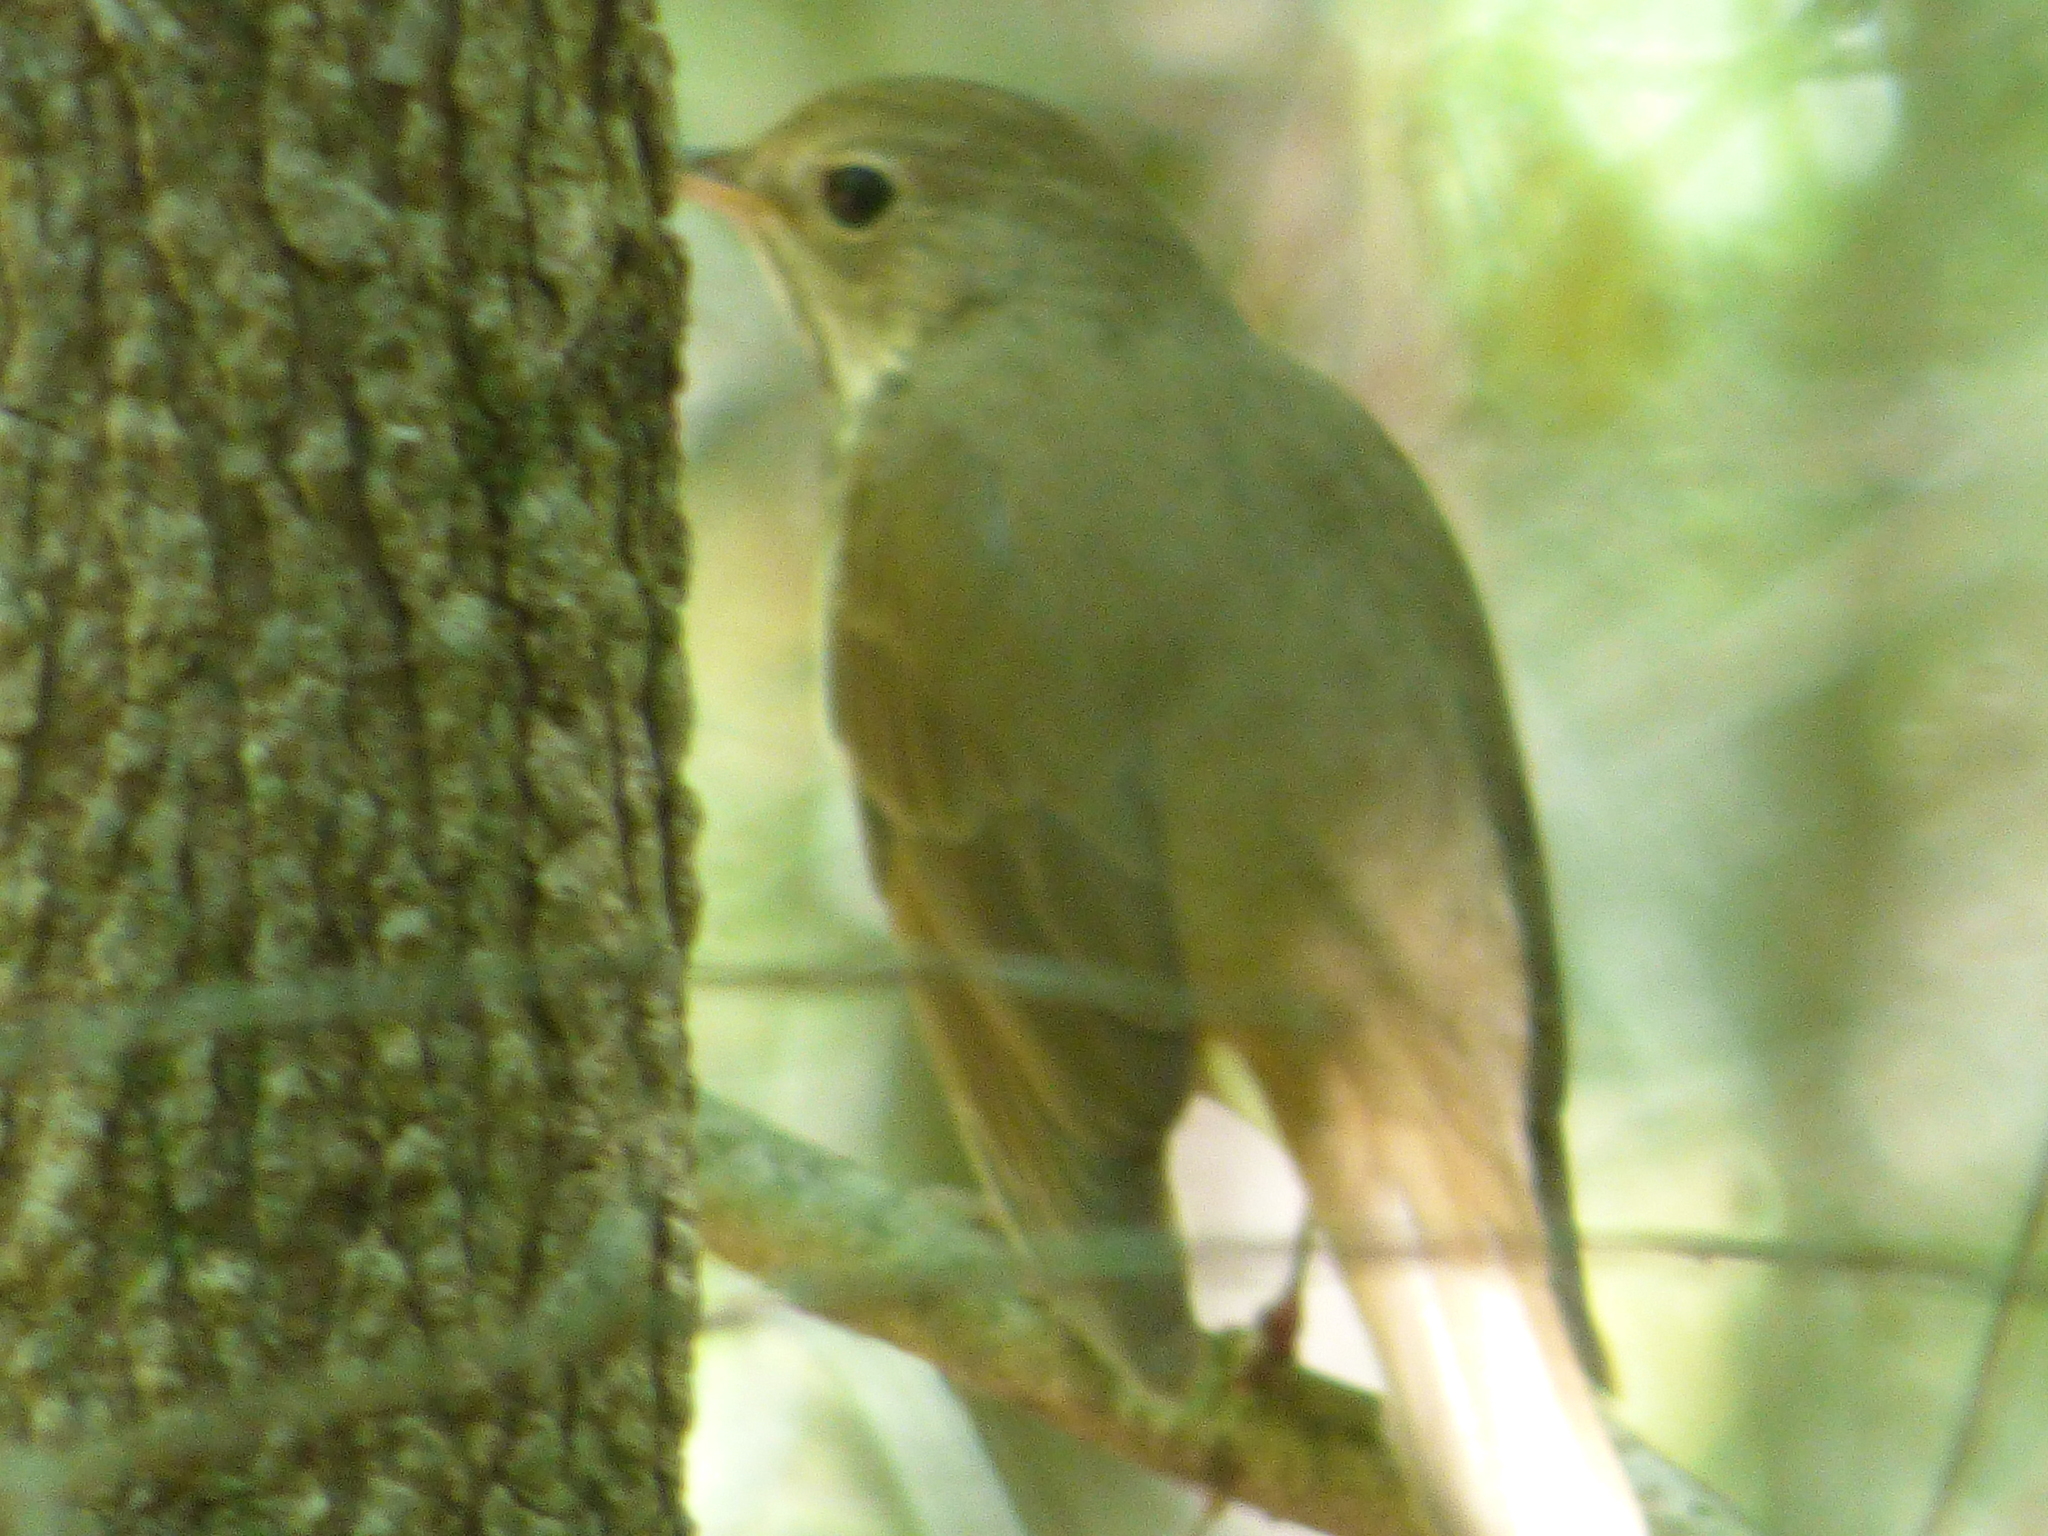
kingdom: Animalia
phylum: Chordata
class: Aves
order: Passeriformes
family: Turdidae
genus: Catharus
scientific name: Catharus guttatus
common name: Hermit thrush
